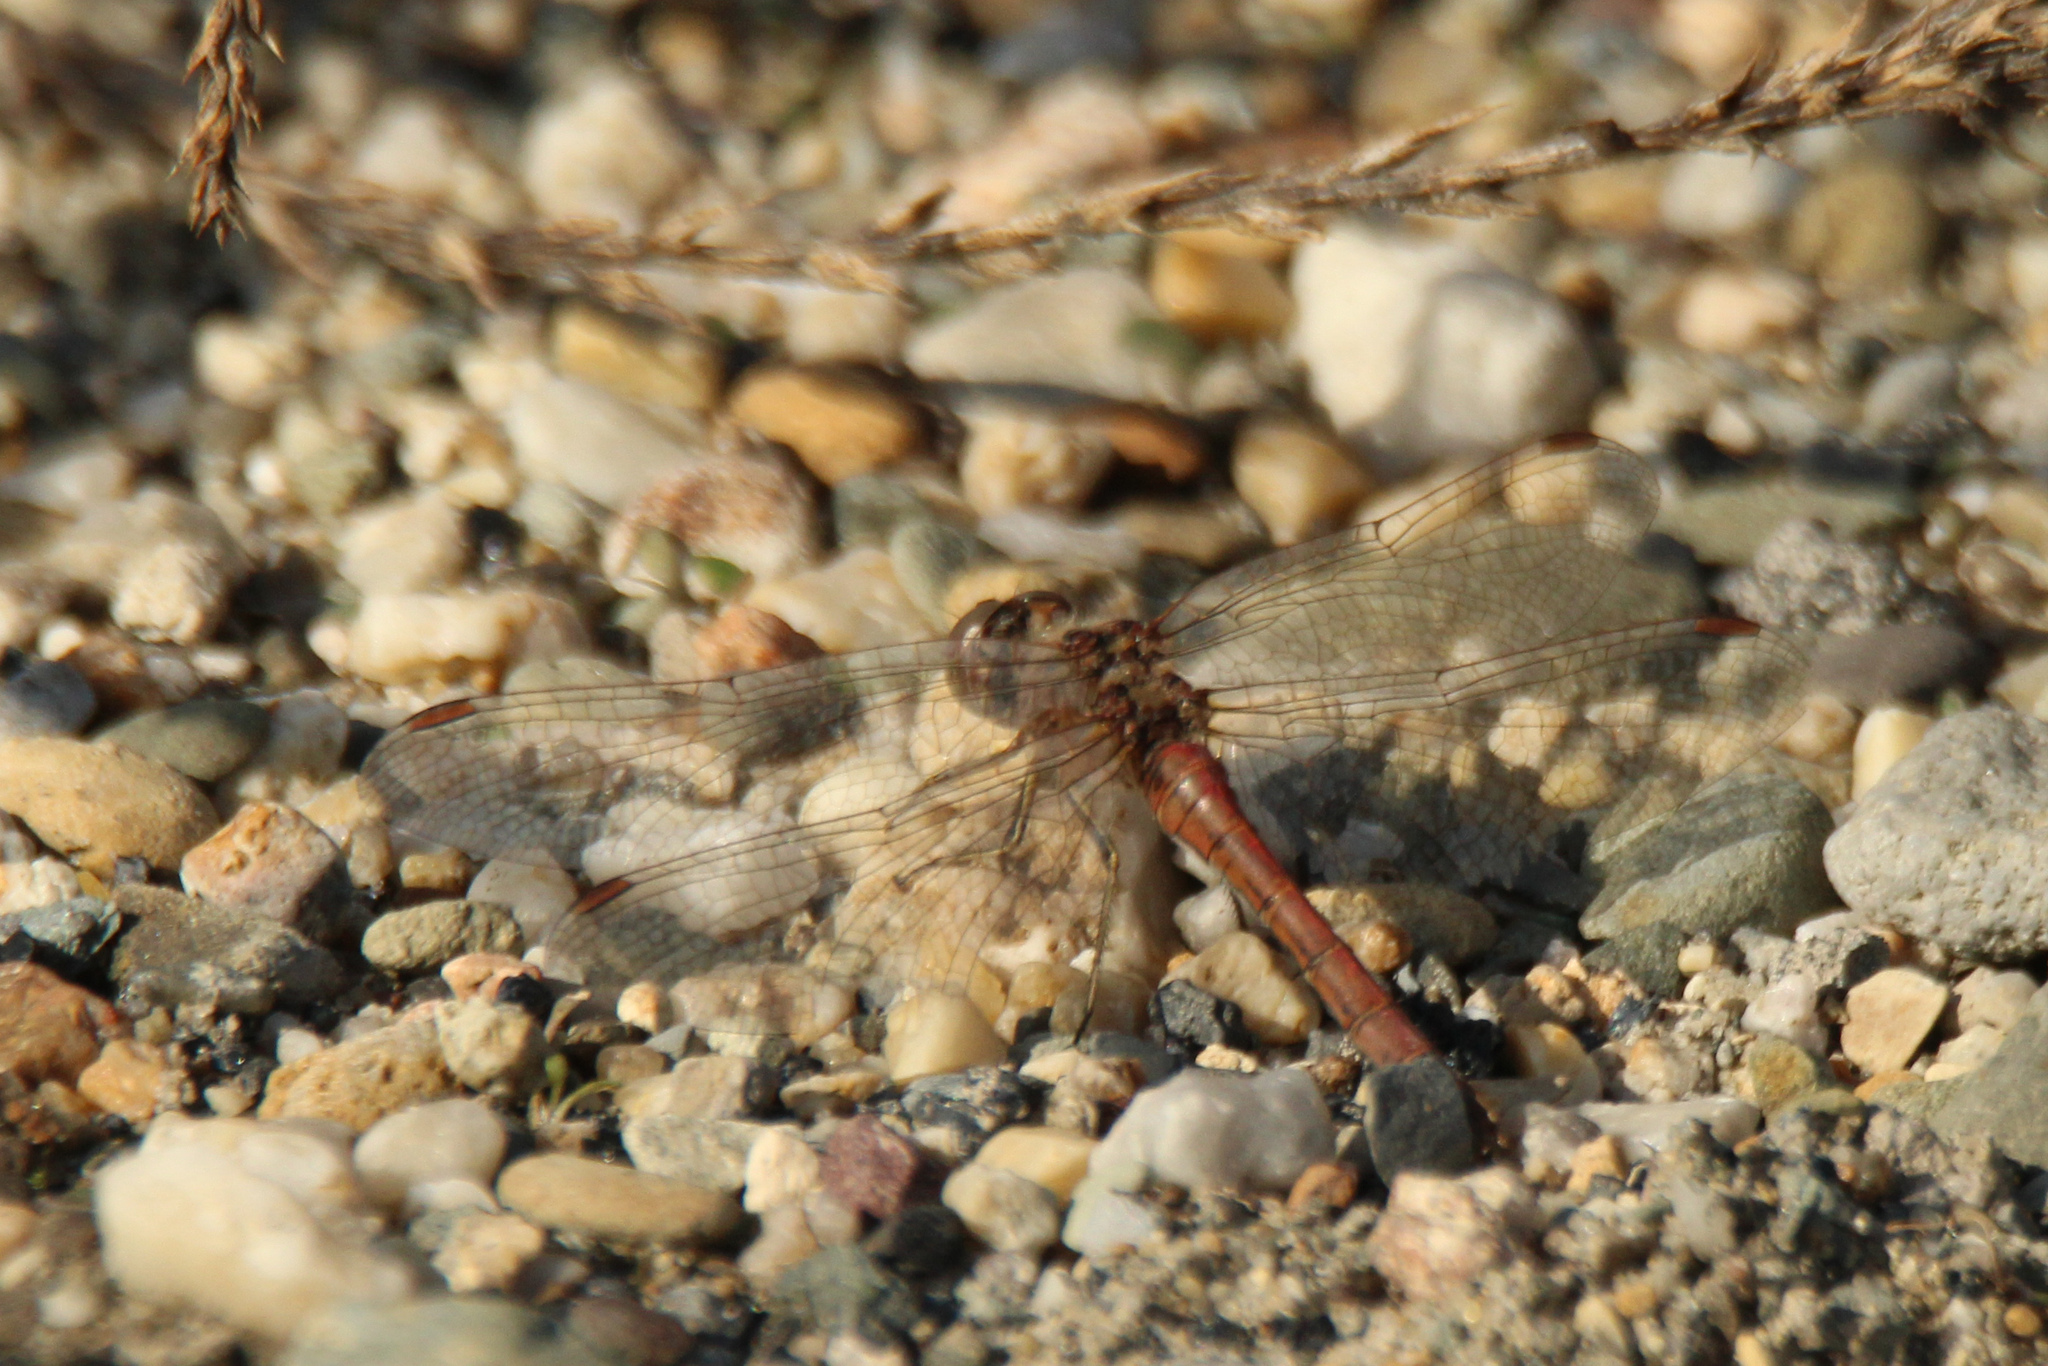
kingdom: Animalia
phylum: Arthropoda
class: Insecta
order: Odonata
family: Libellulidae
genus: Sympetrum
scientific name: Sympetrum vulgatum
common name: Vagrant darter
